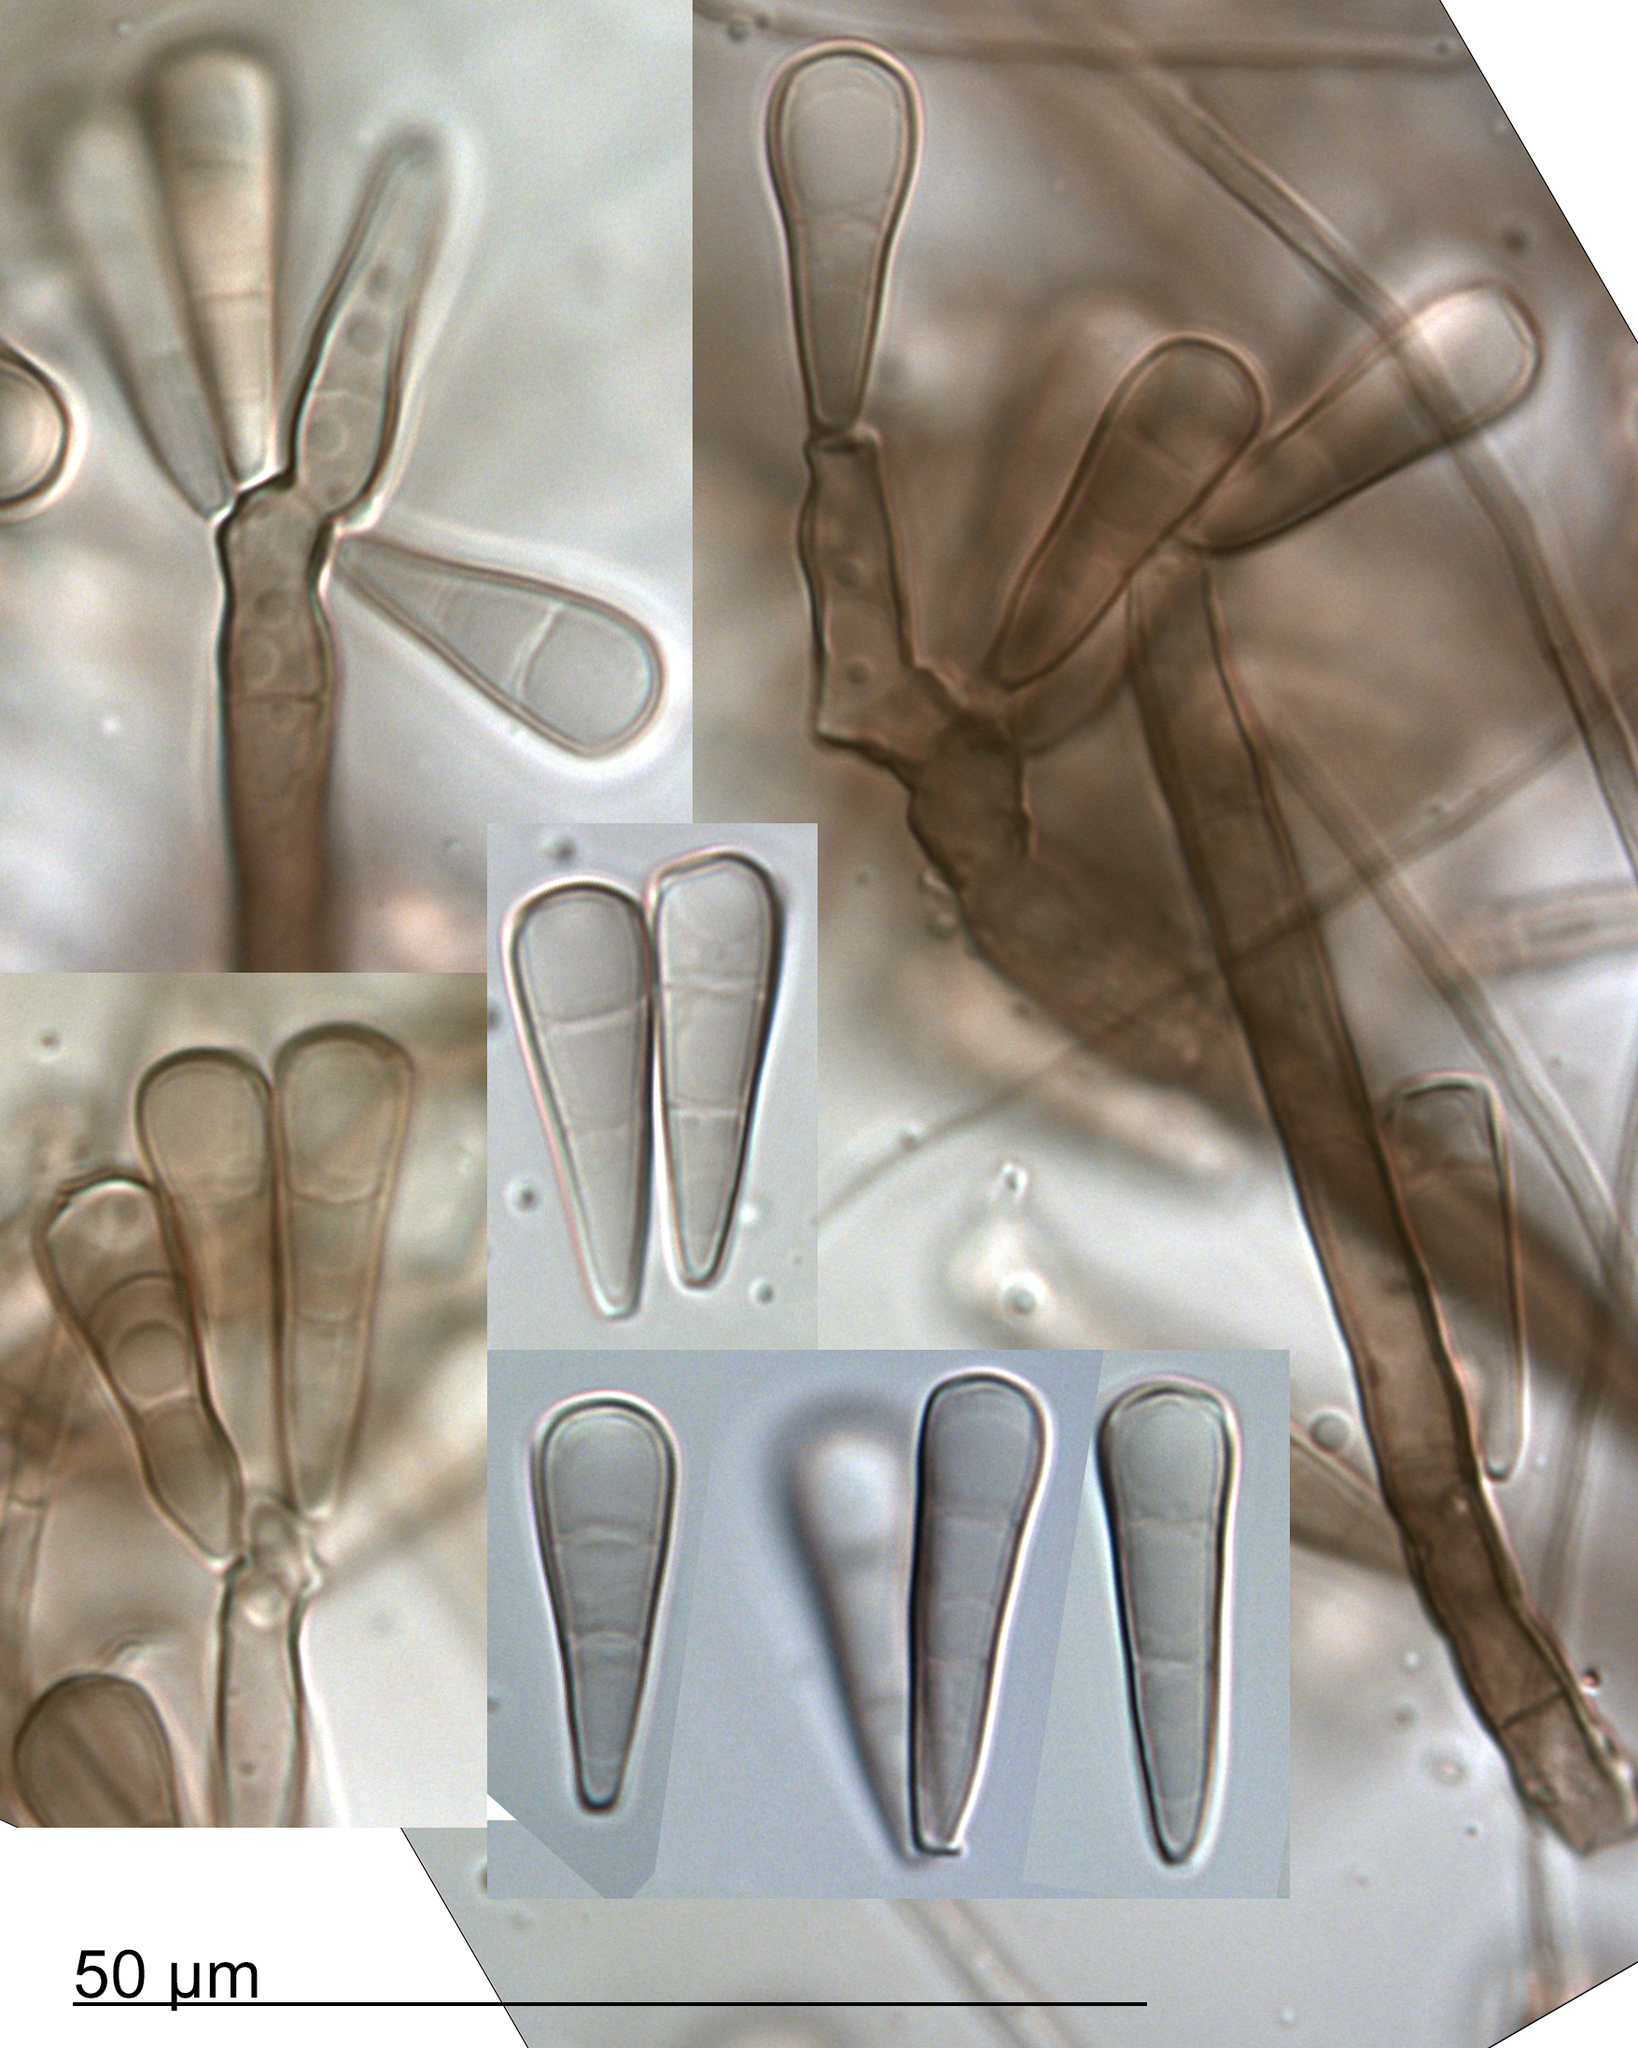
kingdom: Fungi
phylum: Ascomycota
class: Dothideomycetes
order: Pleosporales
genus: Coronospora
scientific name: Coronospora novae-zelandiae
